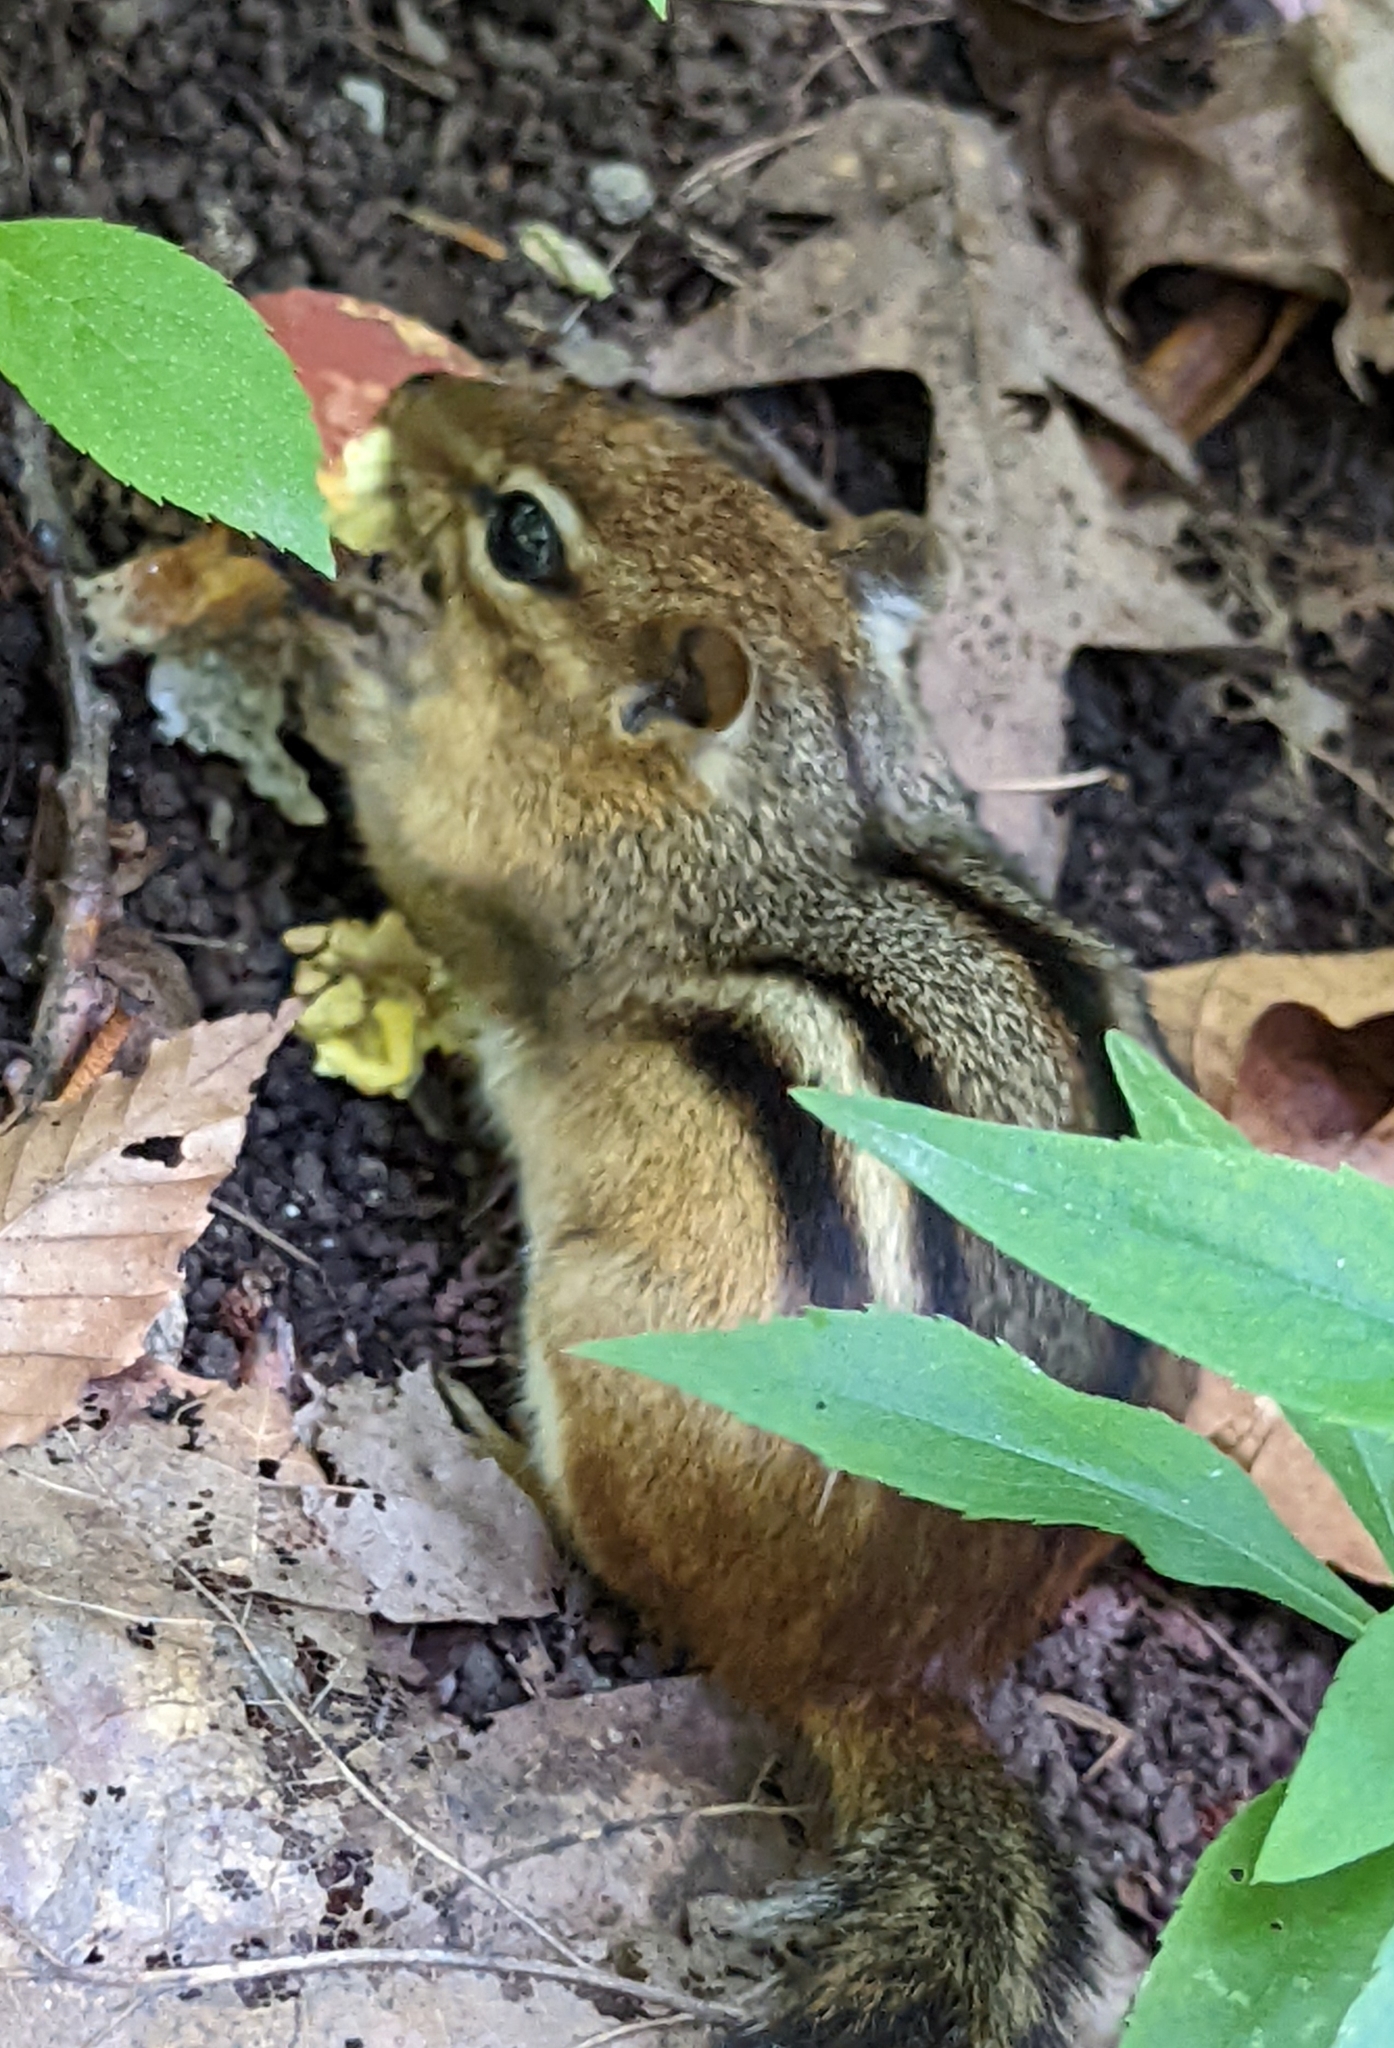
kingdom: Animalia
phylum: Chordata
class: Mammalia
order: Rodentia
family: Sciuridae
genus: Tamias
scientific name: Tamias striatus
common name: Eastern chipmunk
